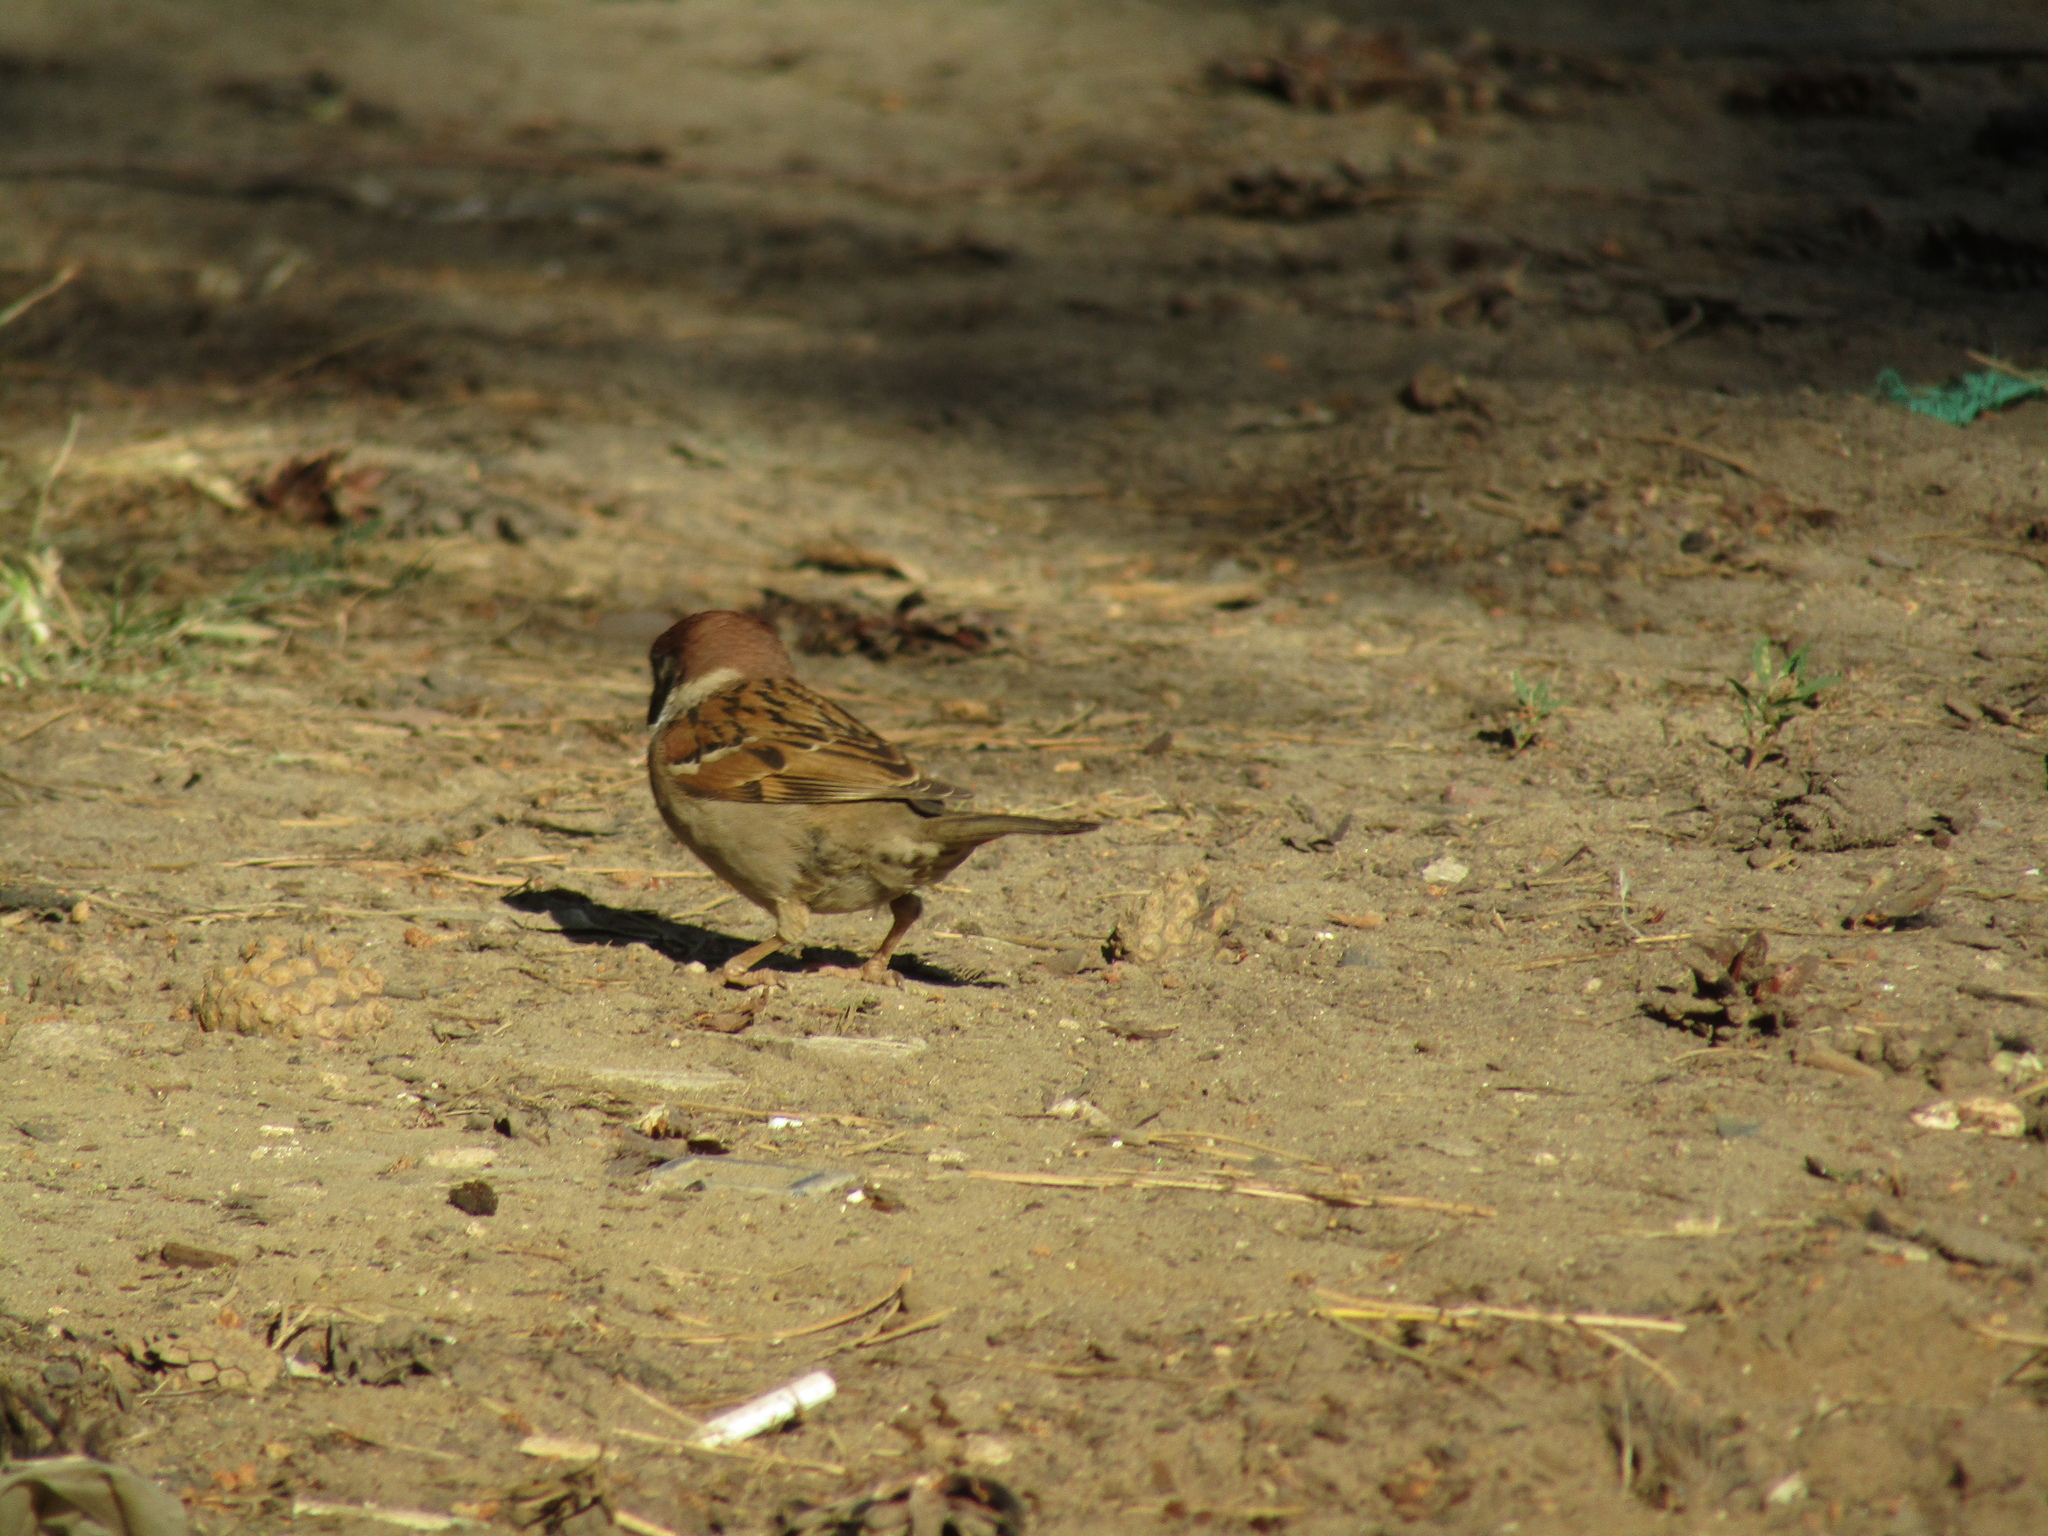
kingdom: Animalia
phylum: Chordata
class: Aves
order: Passeriformes
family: Passeridae
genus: Passer
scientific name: Passer montanus
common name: Eurasian tree sparrow
